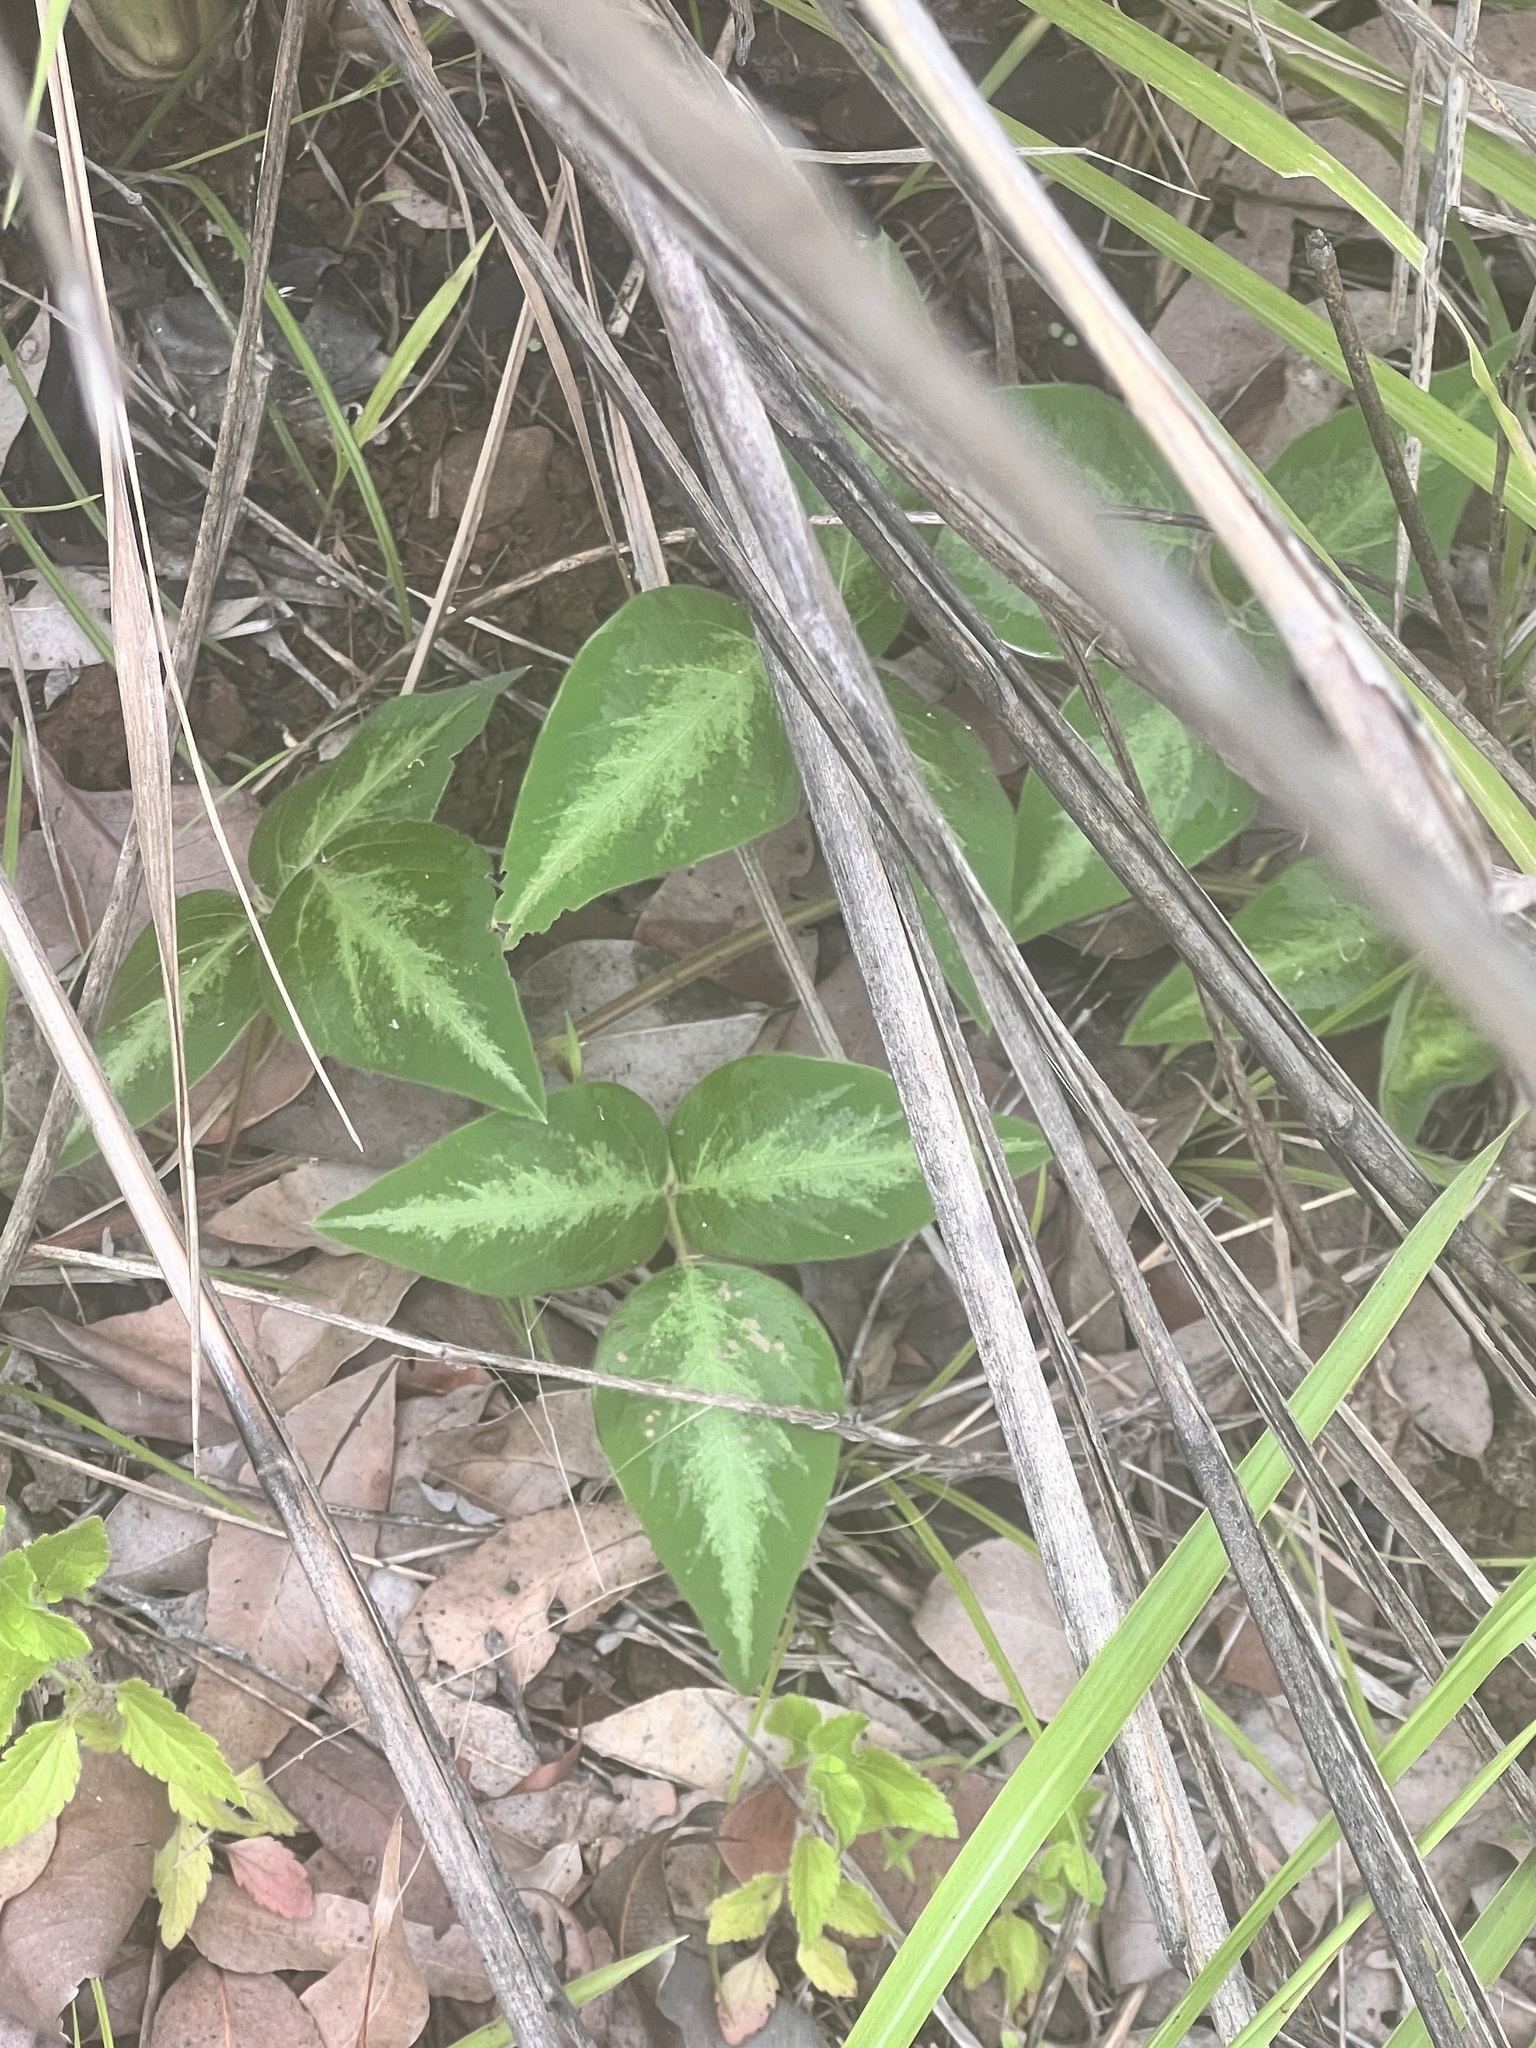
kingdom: Plantae
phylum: Tracheophyta
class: Magnoliopsida
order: Fabales
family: Fabaceae
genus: Desmodium
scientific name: Desmodium uncinatum
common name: Silverleaf desmodium
